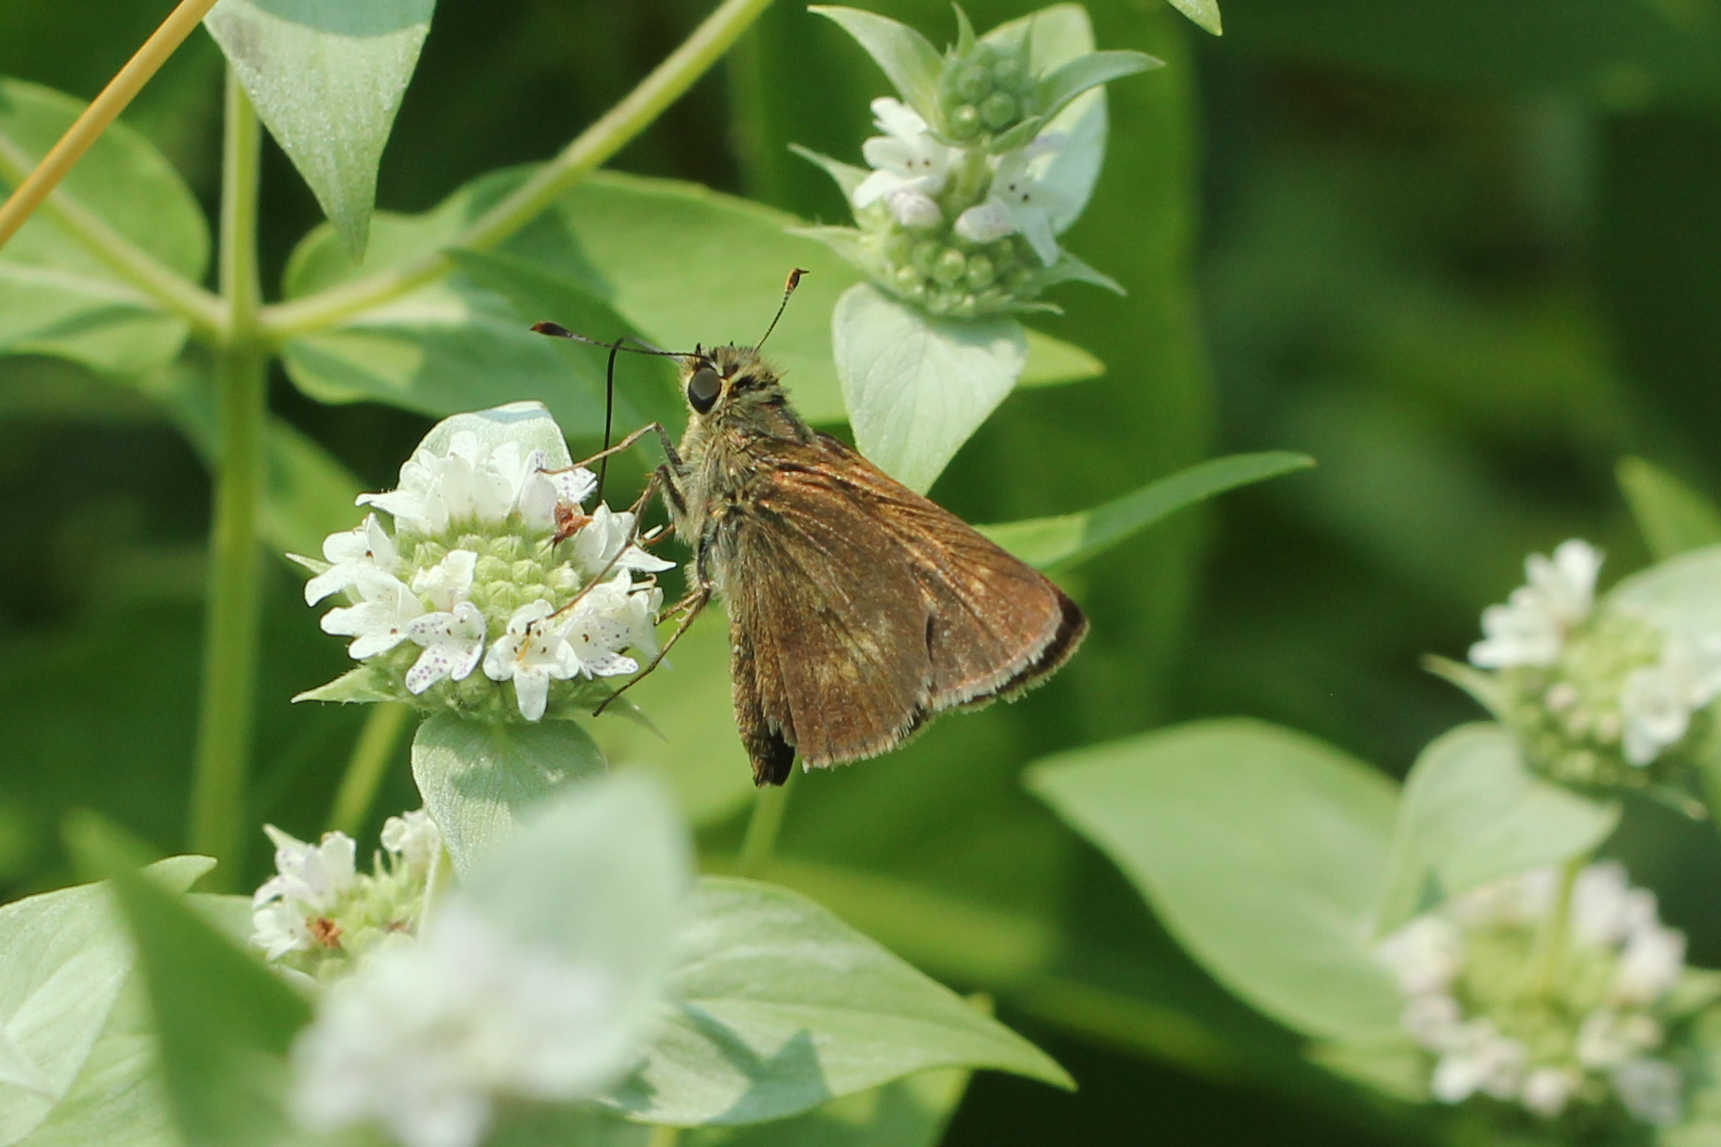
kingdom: Animalia
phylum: Arthropoda
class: Insecta
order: Lepidoptera
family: Hesperiidae
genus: Polites
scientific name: Polites egeremet
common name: Northern broken-dash
